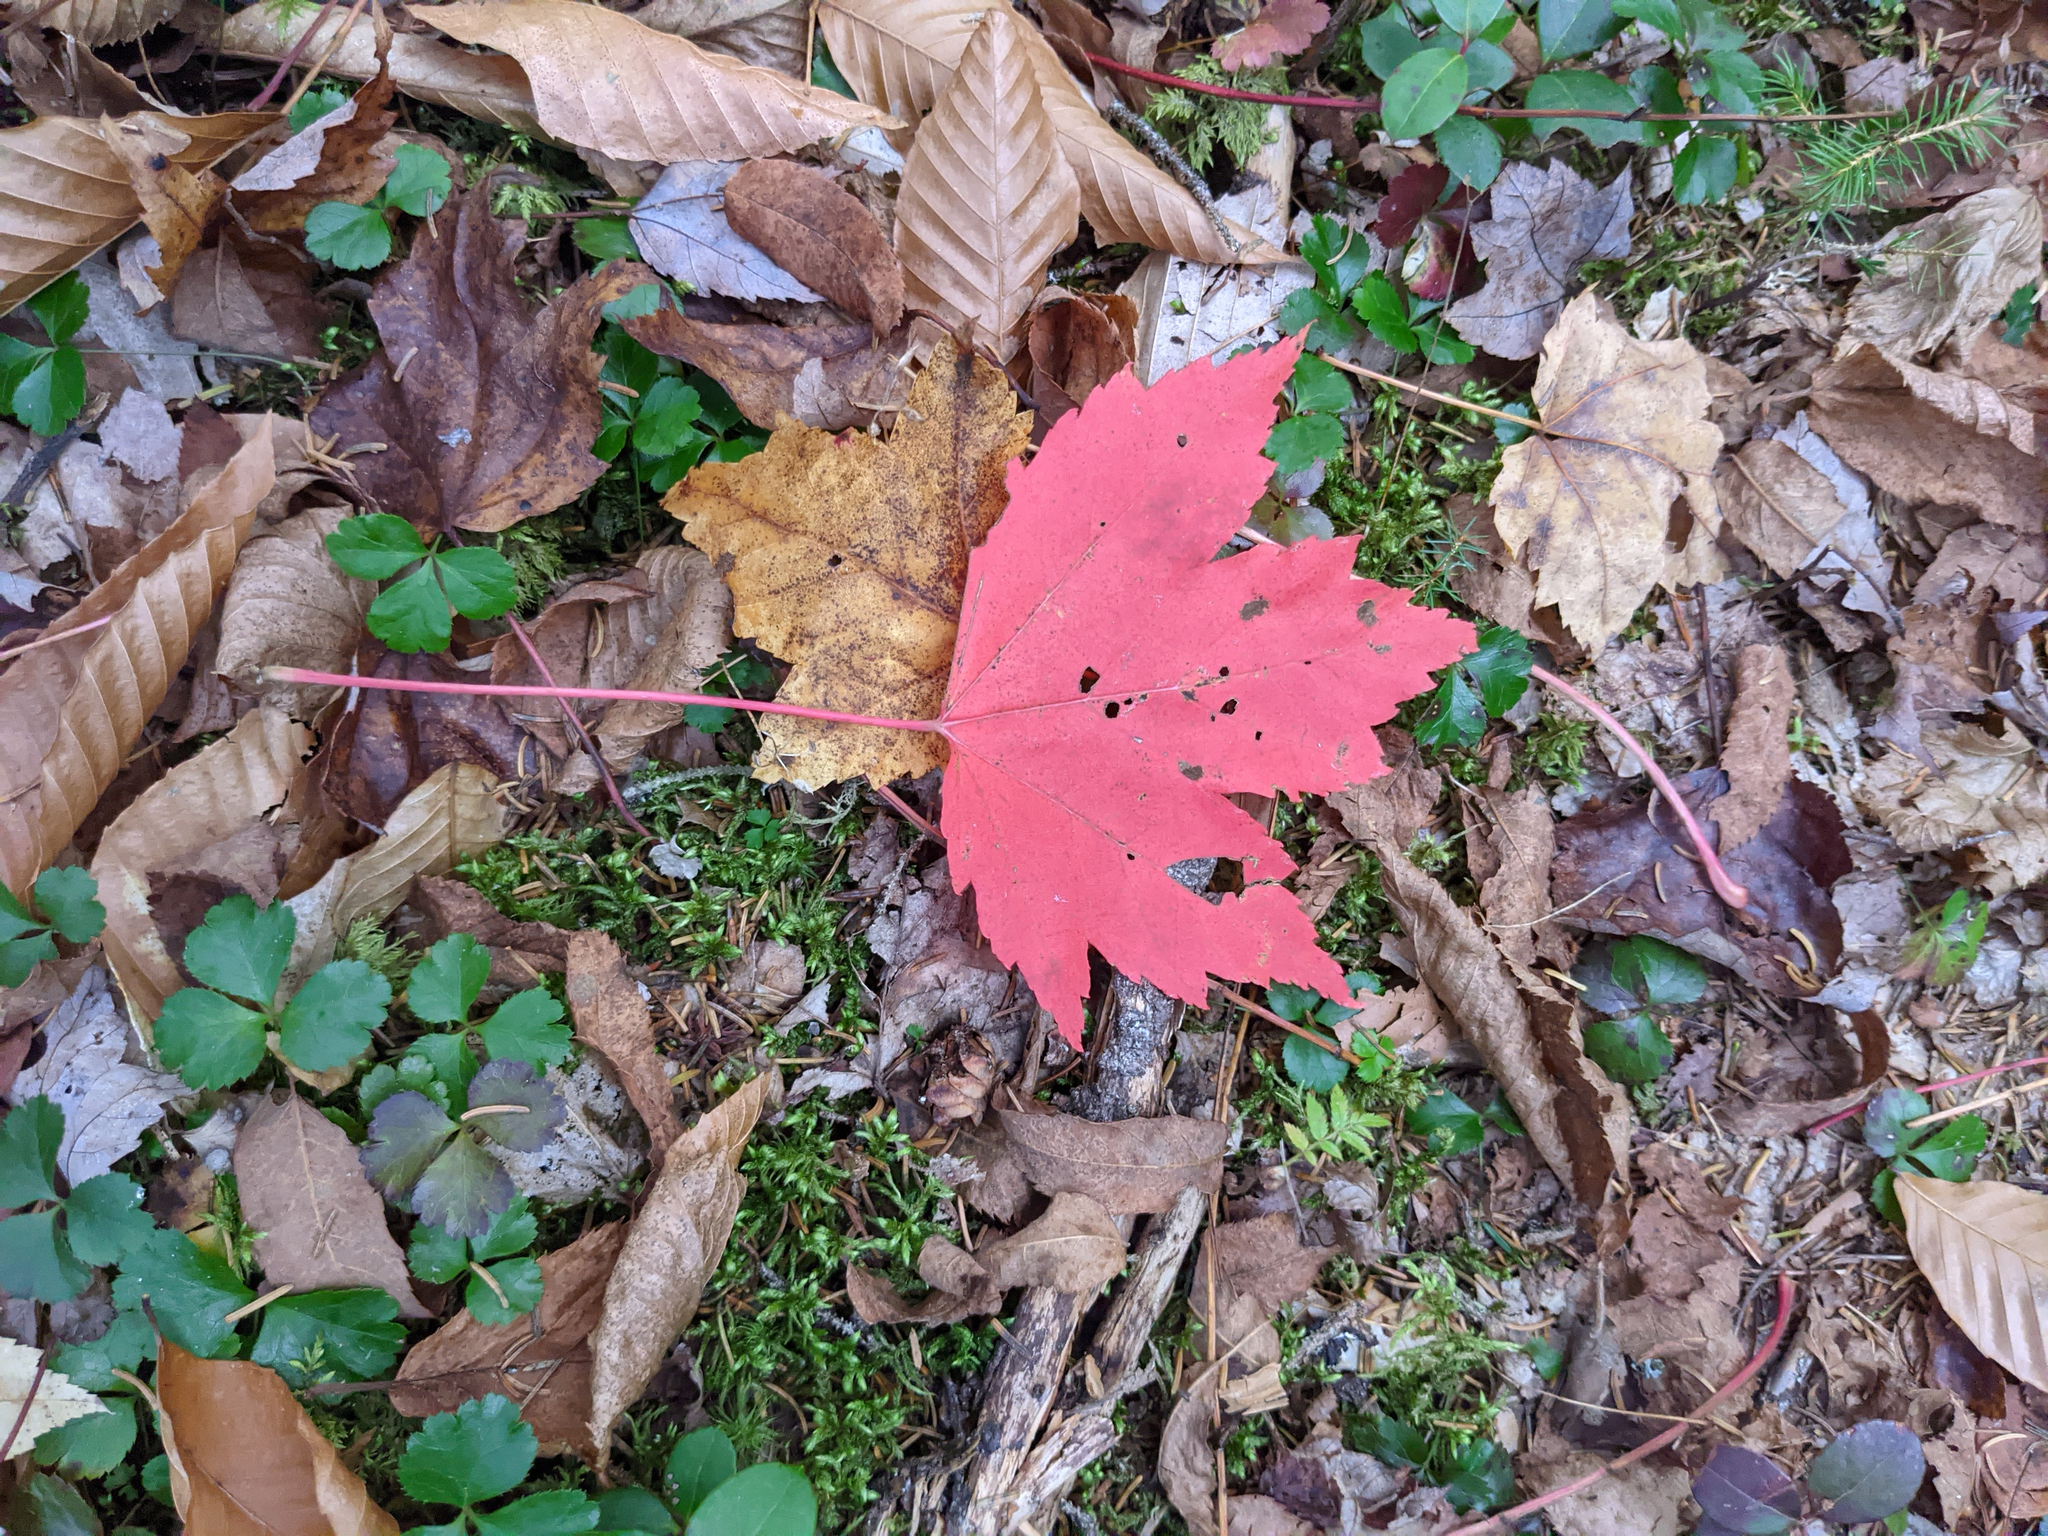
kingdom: Plantae
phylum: Tracheophyta
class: Magnoliopsida
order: Sapindales
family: Sapindaceae
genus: Acer
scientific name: Acer rubrum
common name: Red maple
